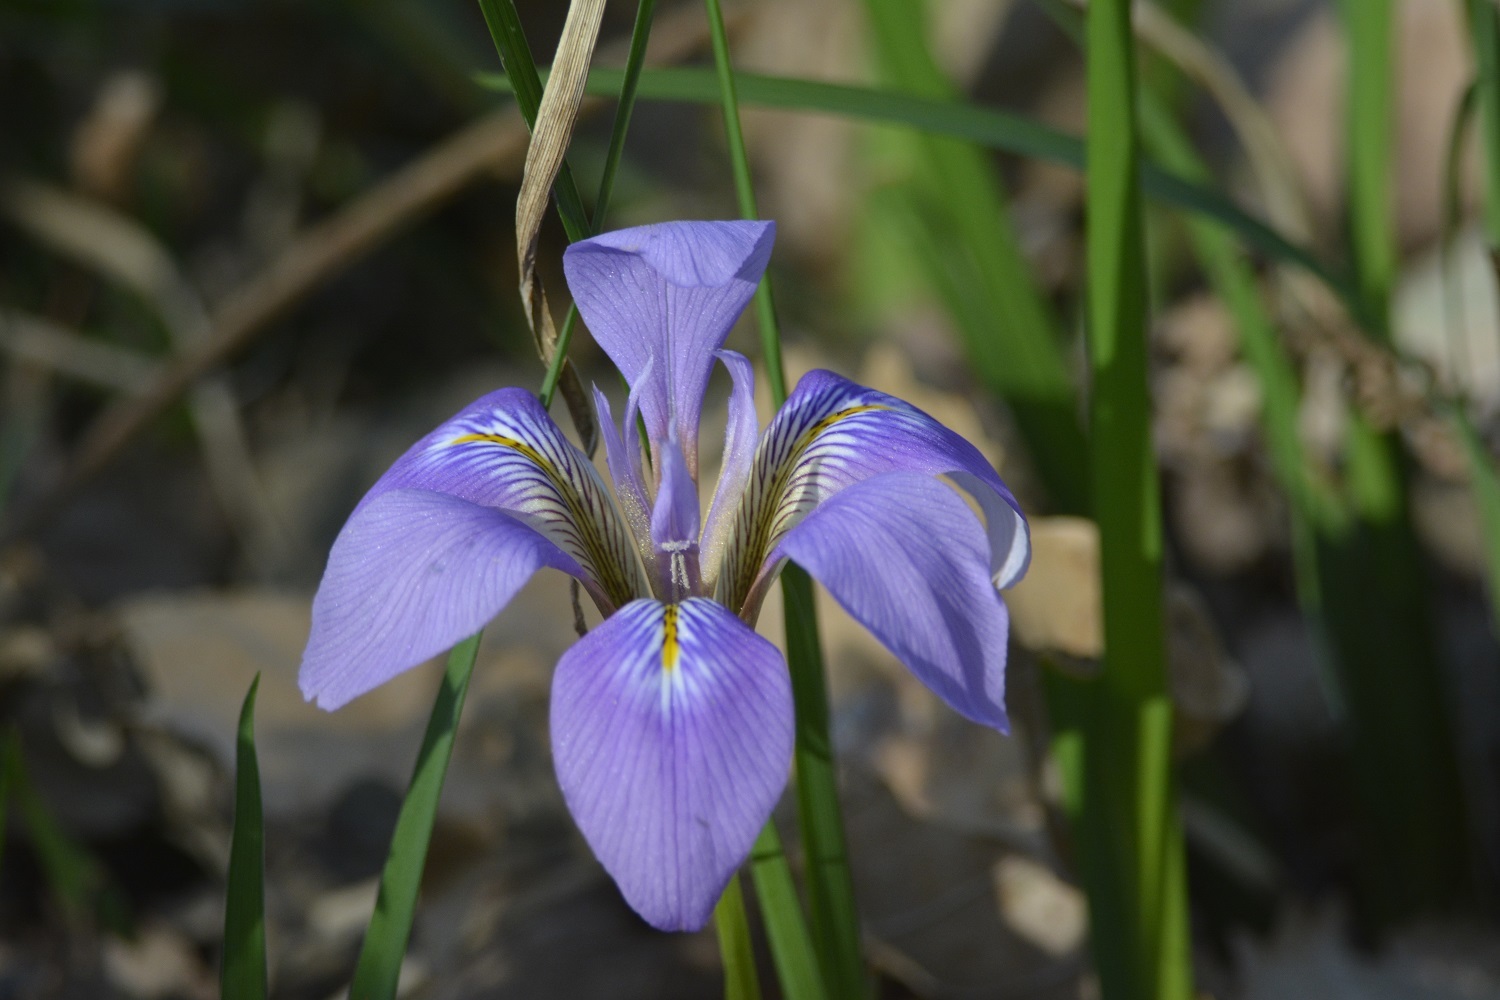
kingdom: Plantae
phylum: Tracheophyta
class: Liliopsida
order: Asparagales
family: Iridaceae
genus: Iris
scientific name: Iris unguicularis
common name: Algerian iris
